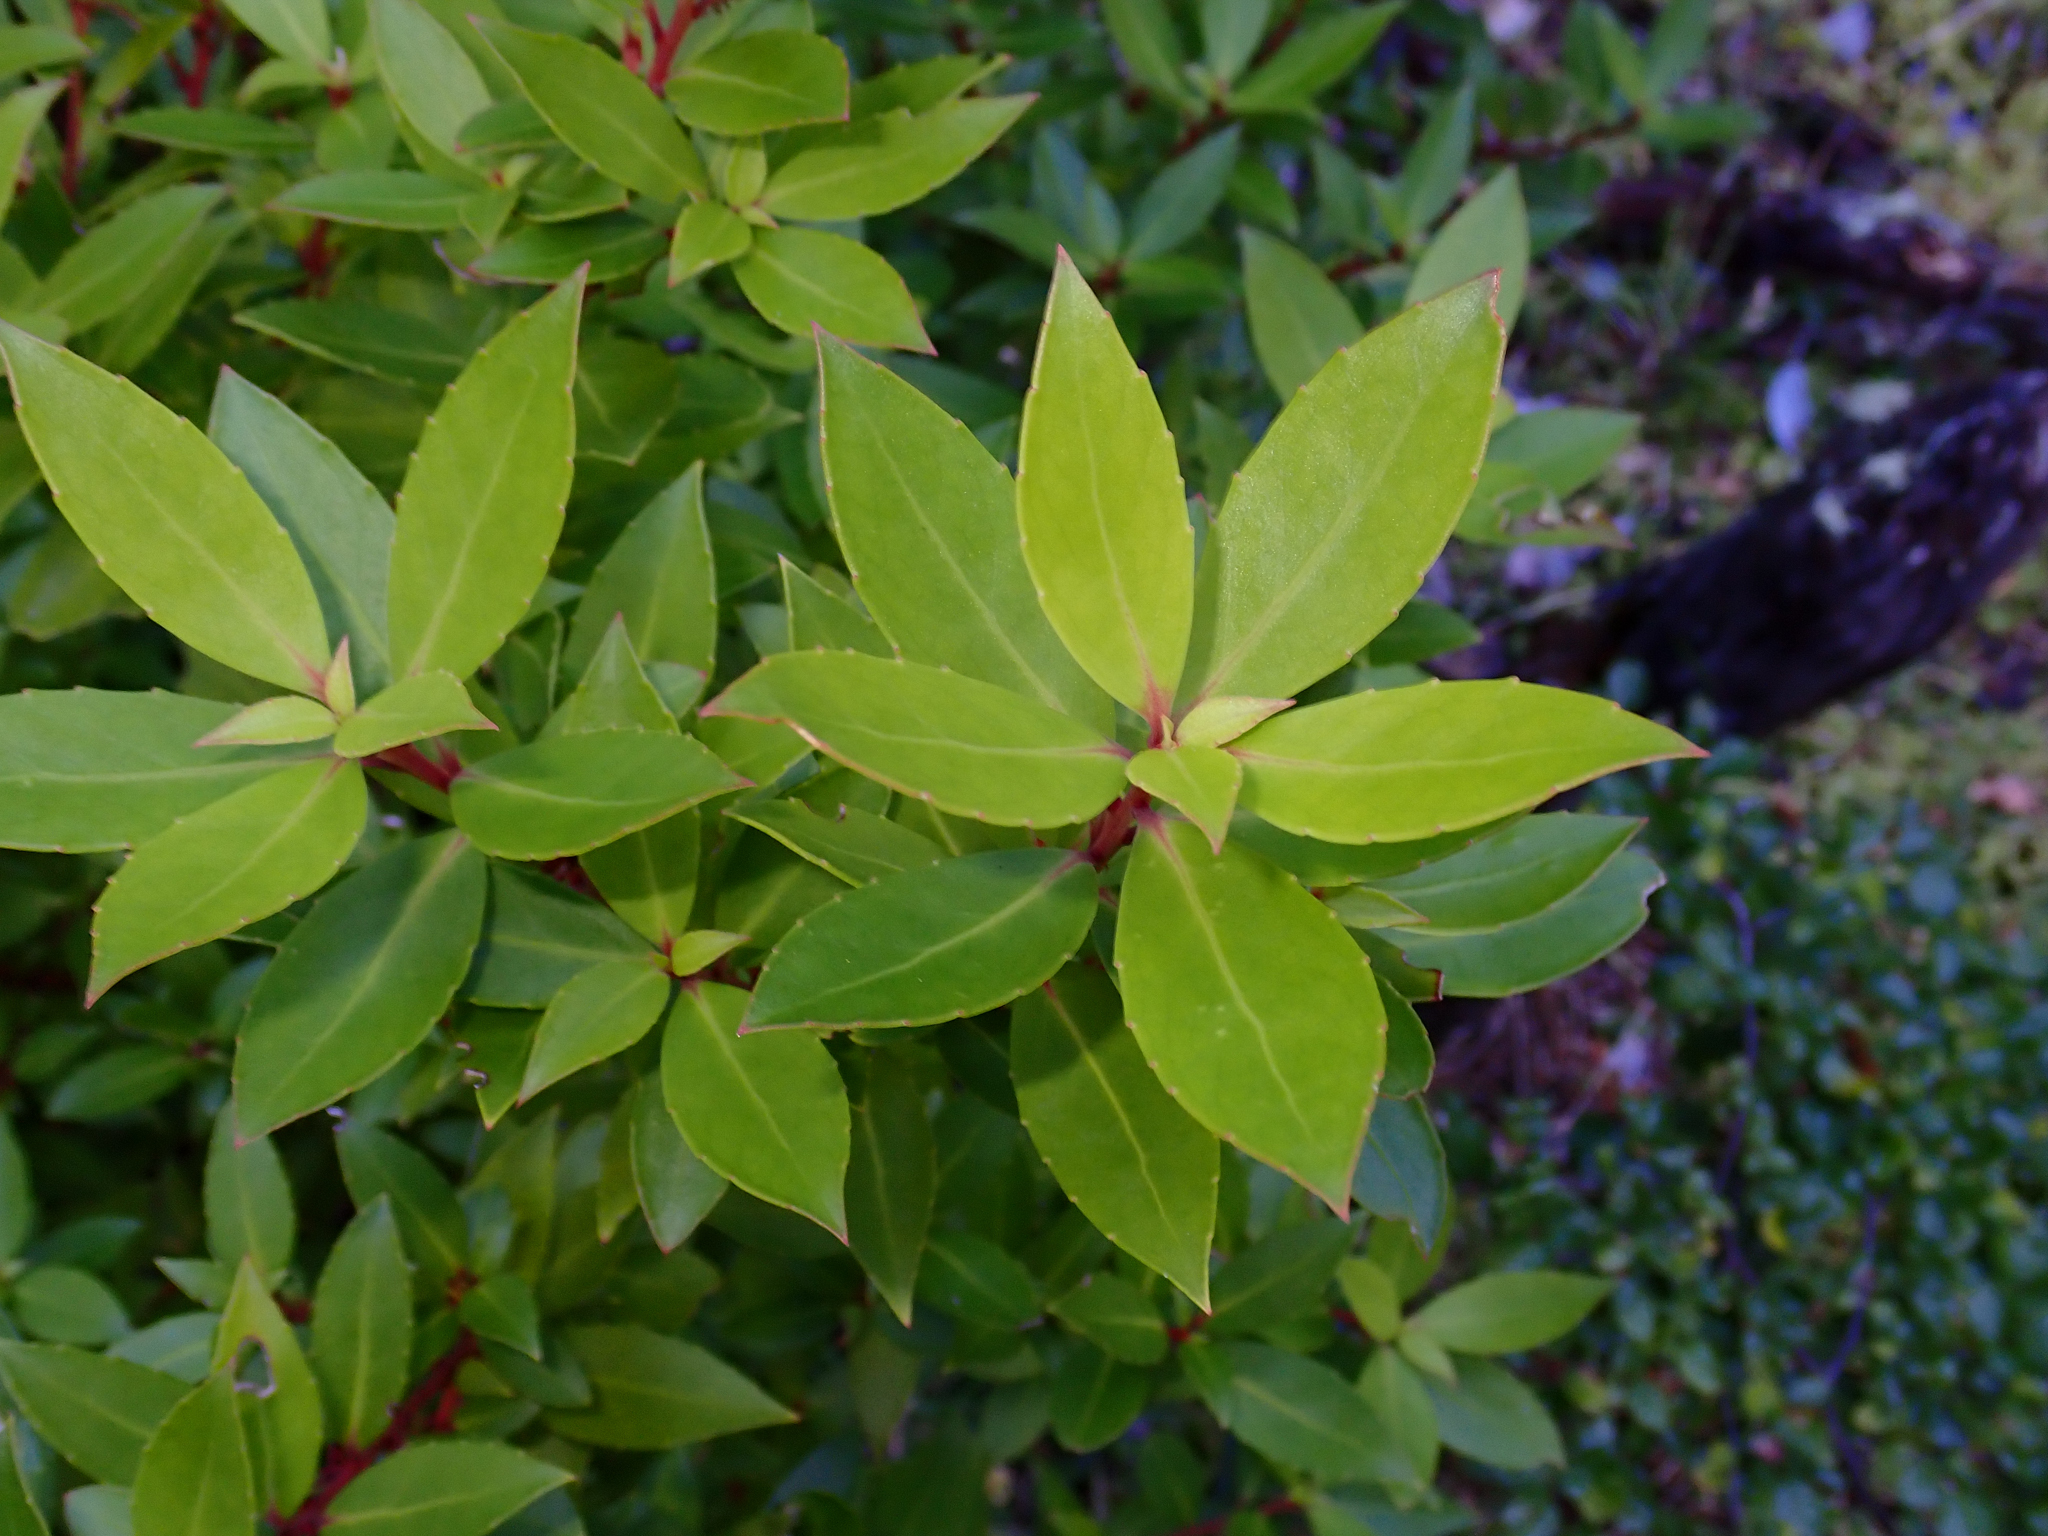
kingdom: Plantae
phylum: Tracheophyta
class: Magnoliopsida
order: Celastrales
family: Celastraceae
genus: Maytenus
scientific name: Maytenus magellanica
